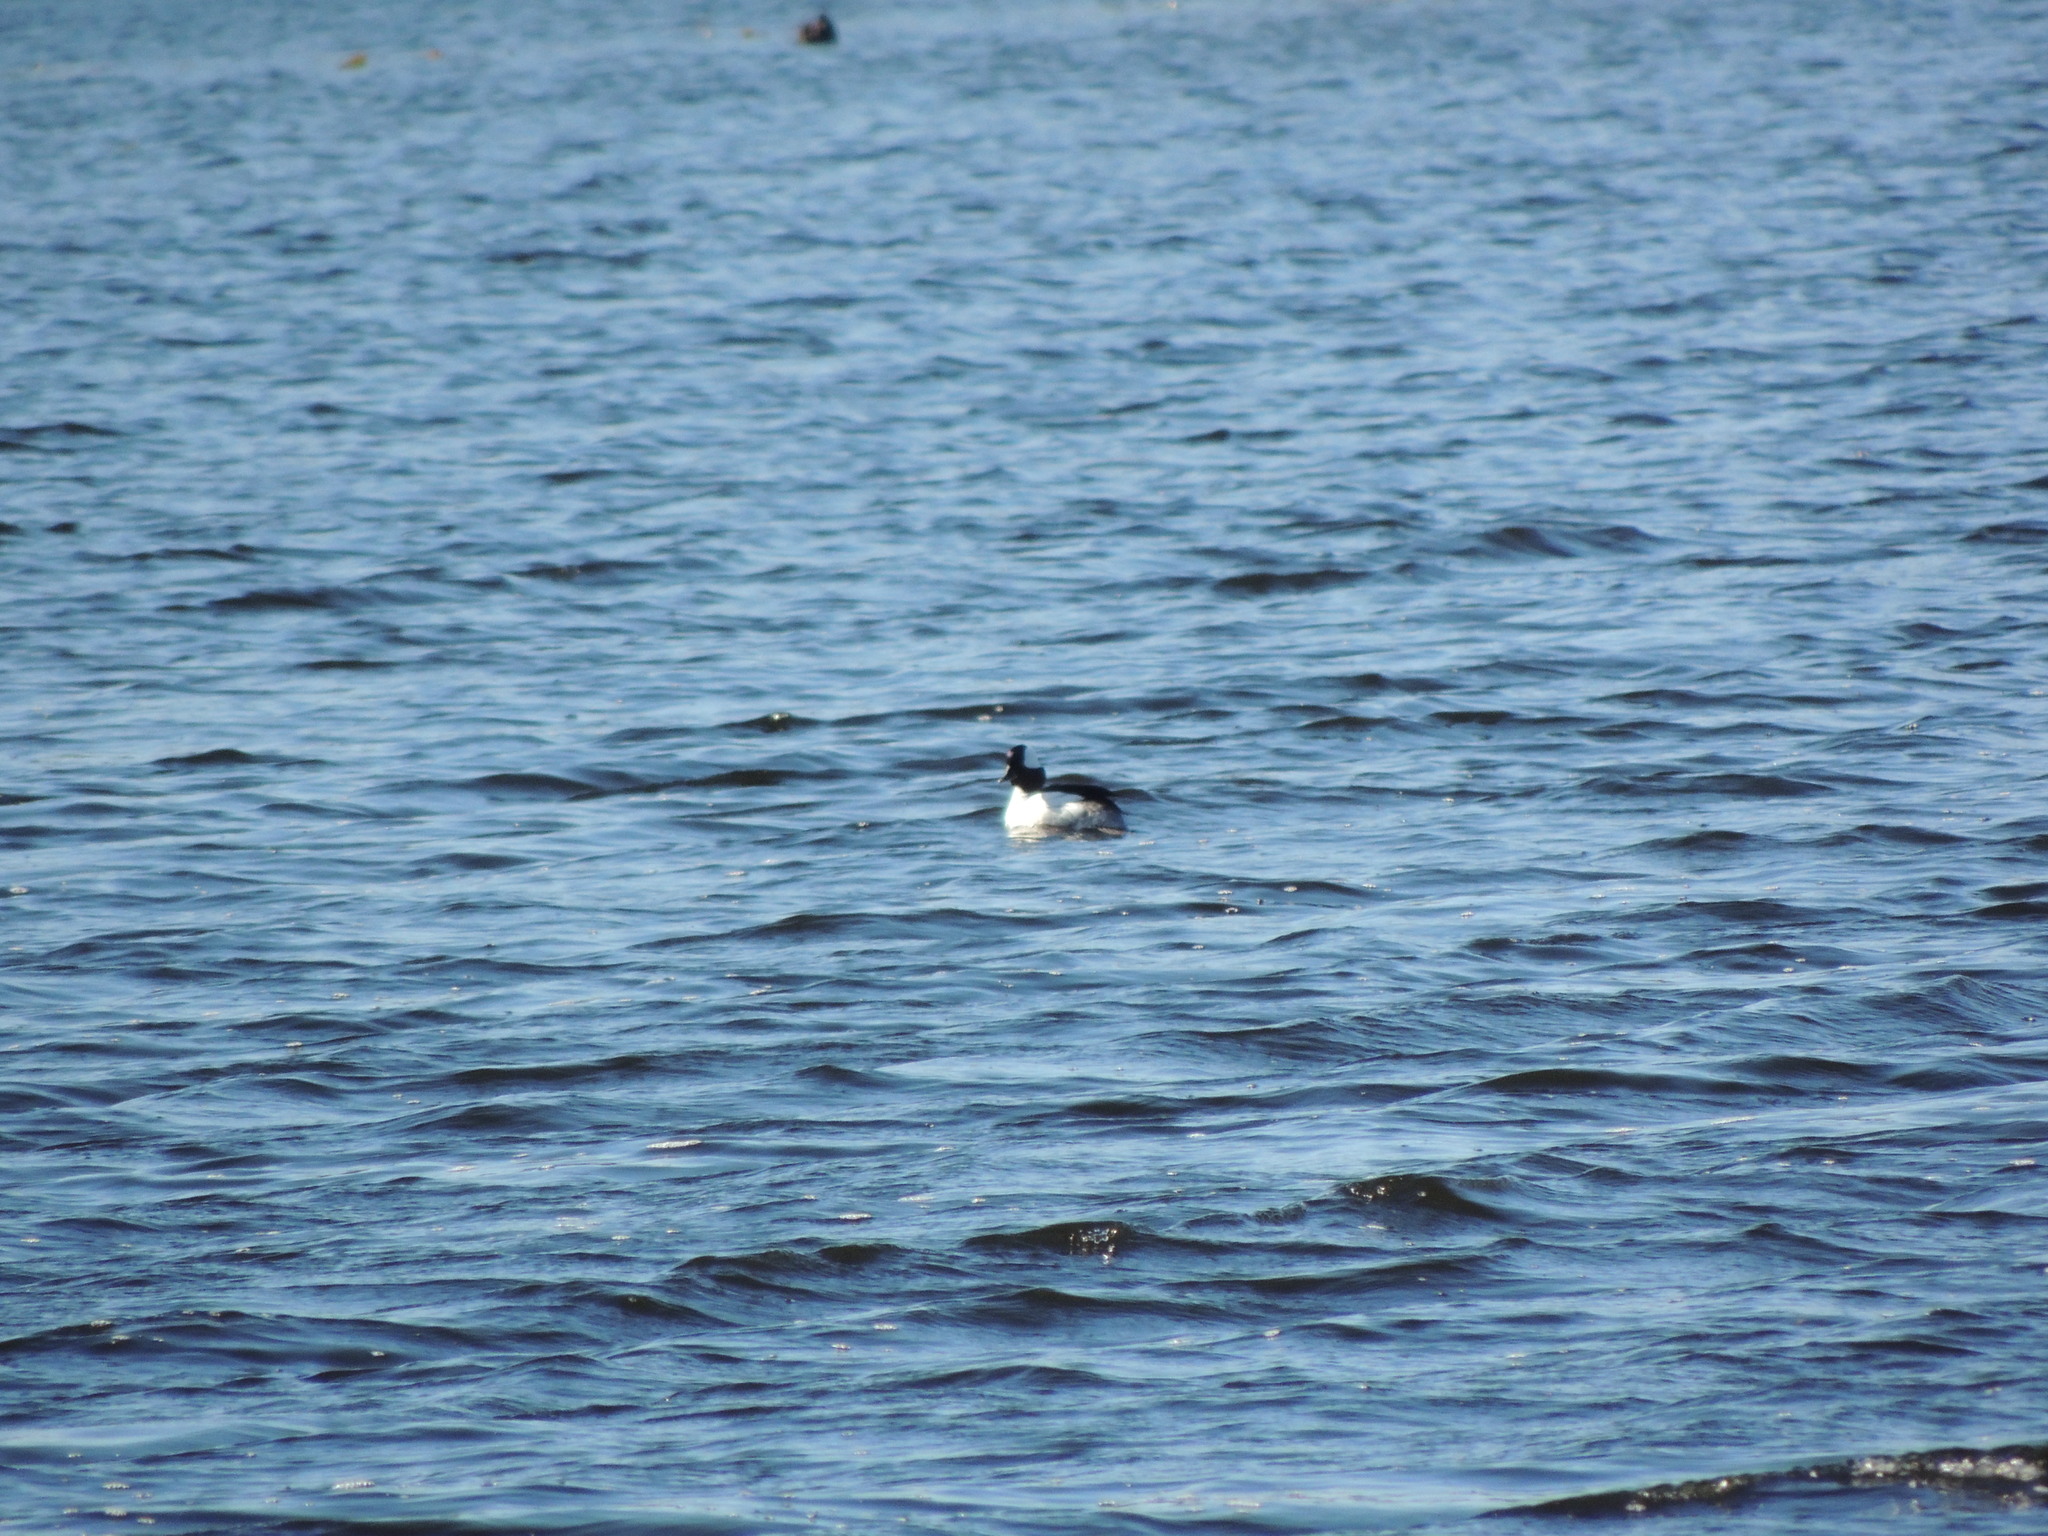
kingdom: Animalia
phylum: Chordata
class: Aves
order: Anseriformes
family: Anatidae
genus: Bucephala
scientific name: Bucephala albeola
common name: Bufflehead
